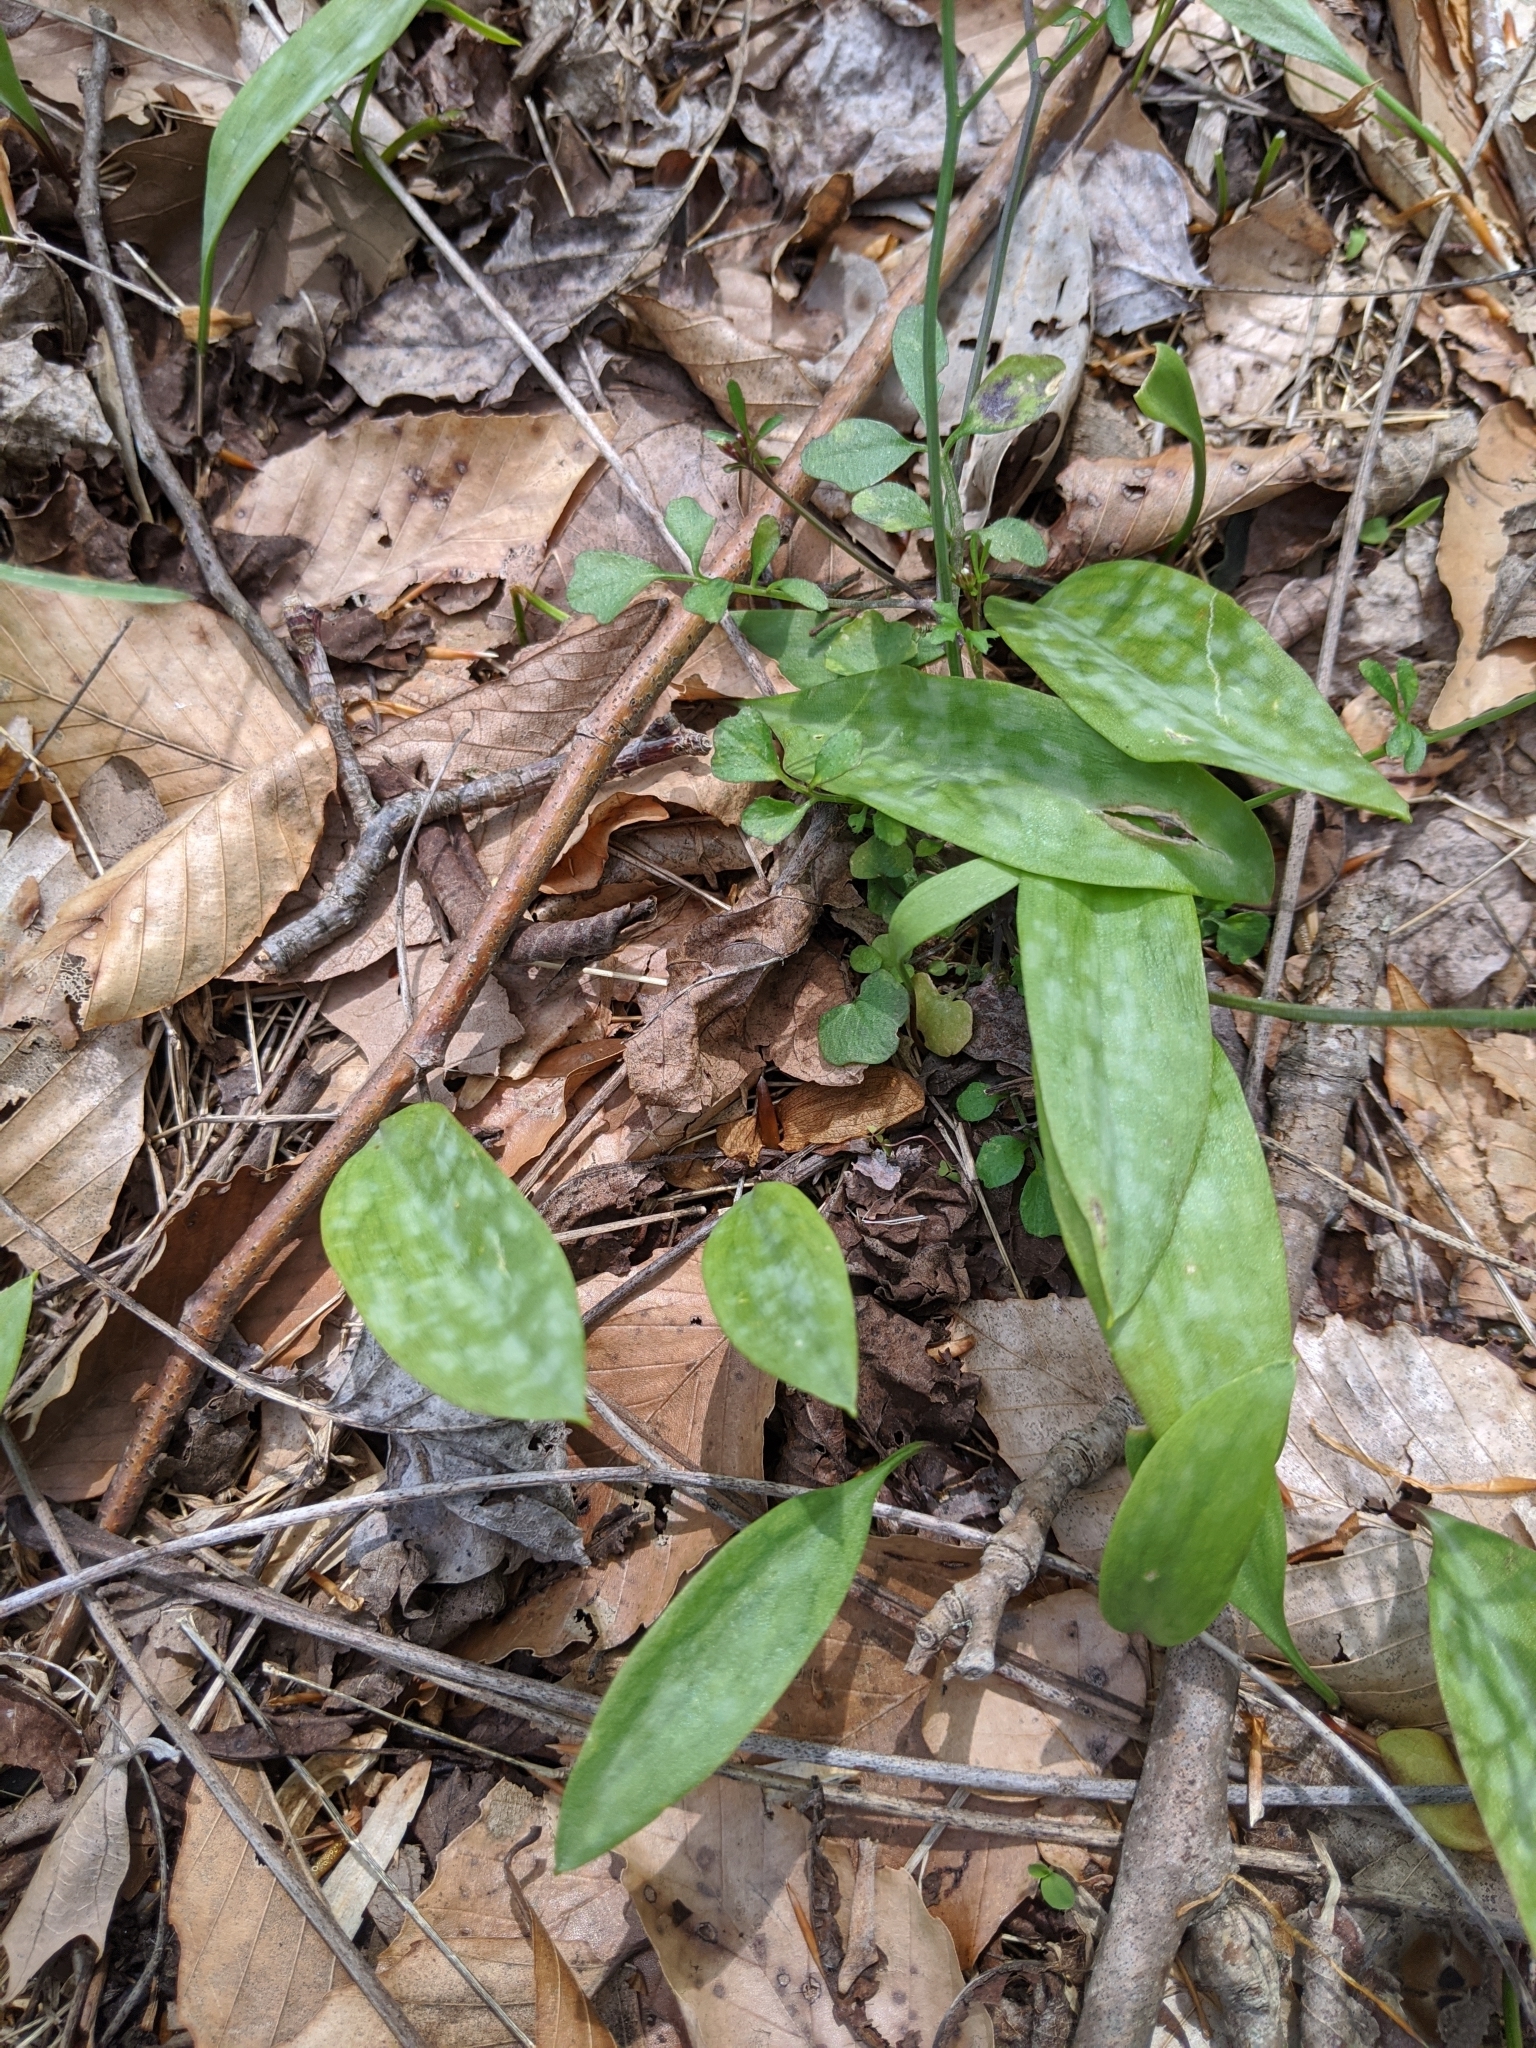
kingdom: Plantae
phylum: Tracheophyta
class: Liliopsida
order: Liliales
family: Liliaceae
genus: Erythronium
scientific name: Erythronium americanum
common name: Yellow adder's-tongue
